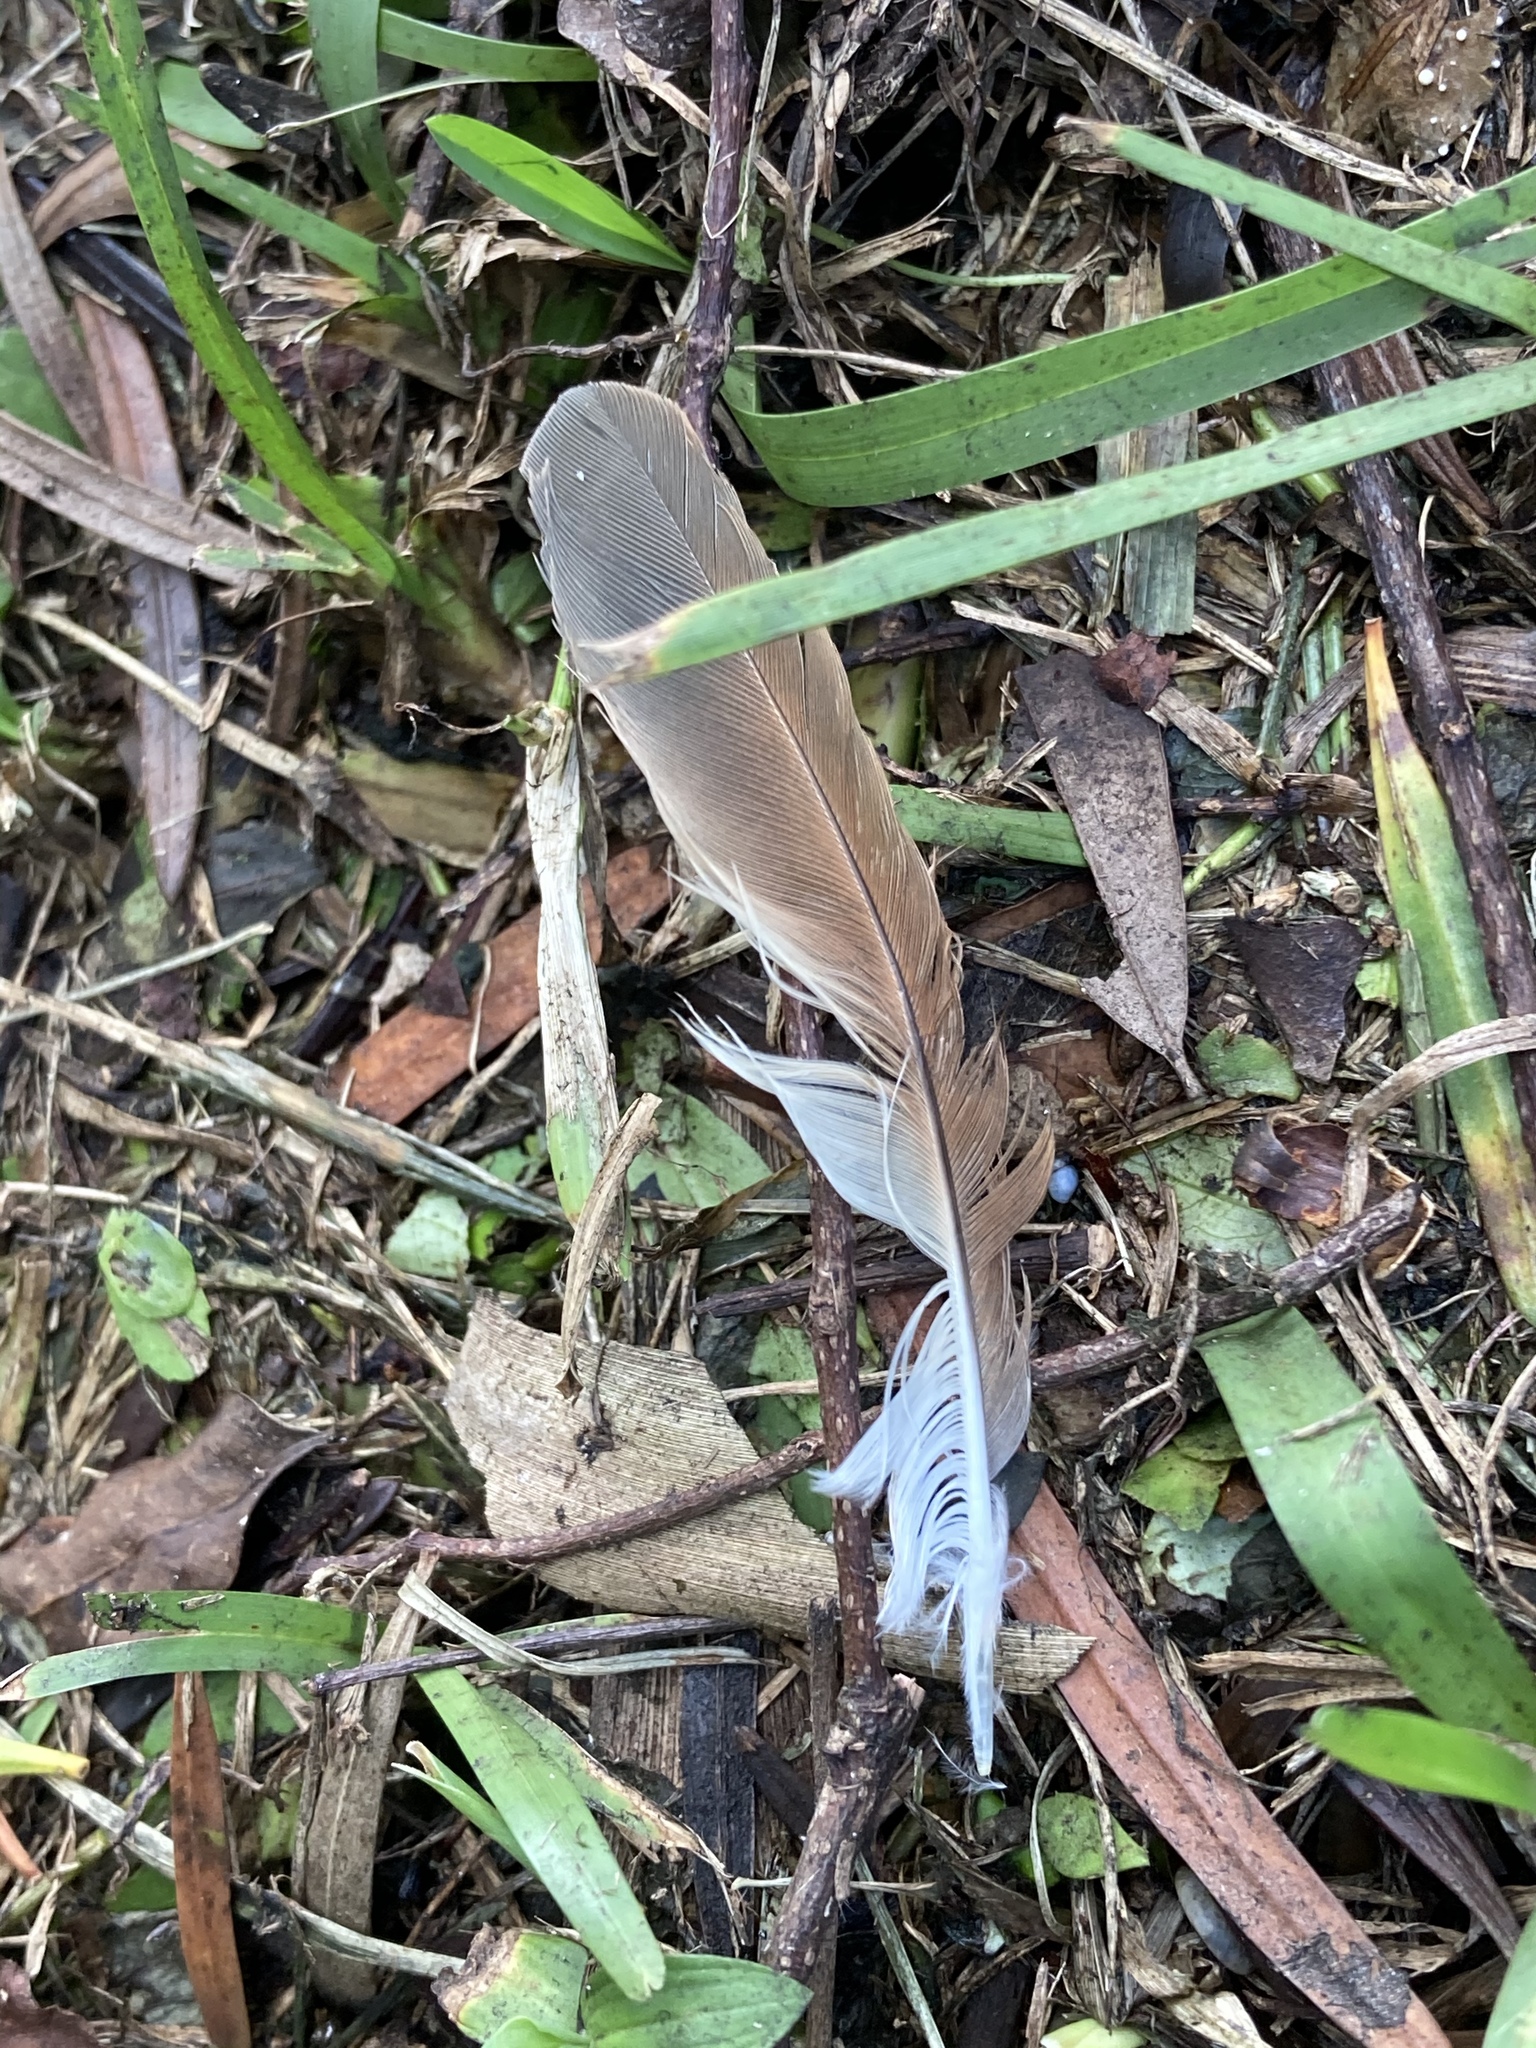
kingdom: Animalia
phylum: Chordata
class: Aves
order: Cuculiformes
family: Cuculidae
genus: Coccyzus
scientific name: Coccyzus americanus
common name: Yellow-billed cuckoo
